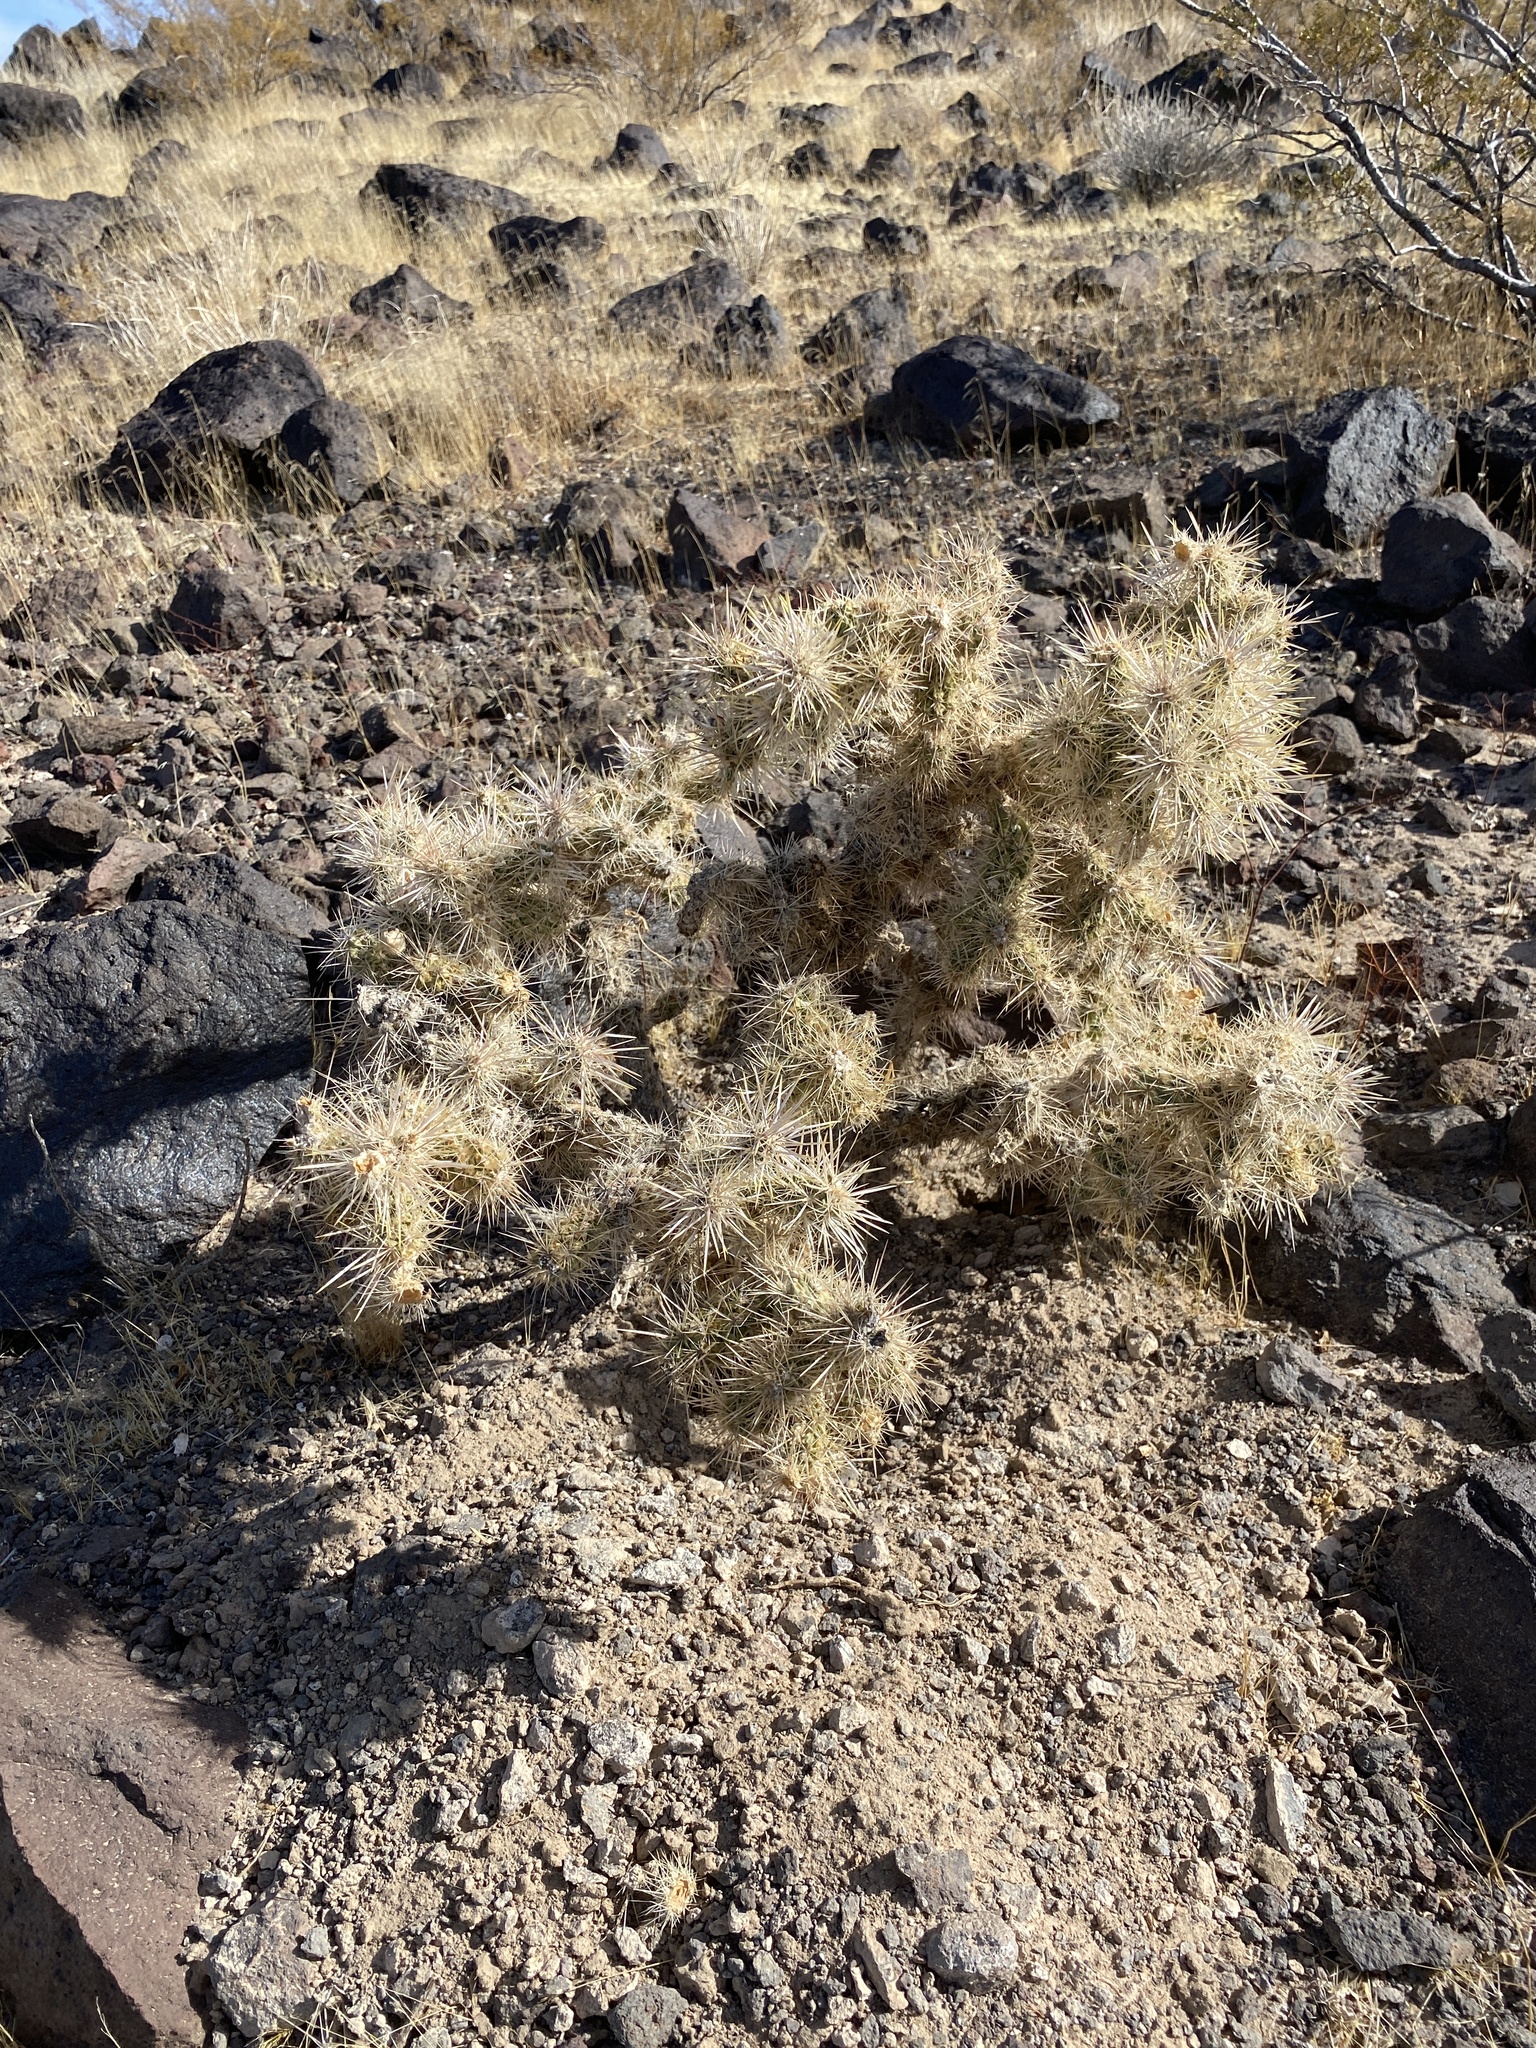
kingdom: Plantae
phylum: Tracheophyta
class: Magnoliopsida
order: Caryophyllales
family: Cactaceae
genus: Cylindropuntia
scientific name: Cylindropuntia echinocarpa
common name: Ground cholla
